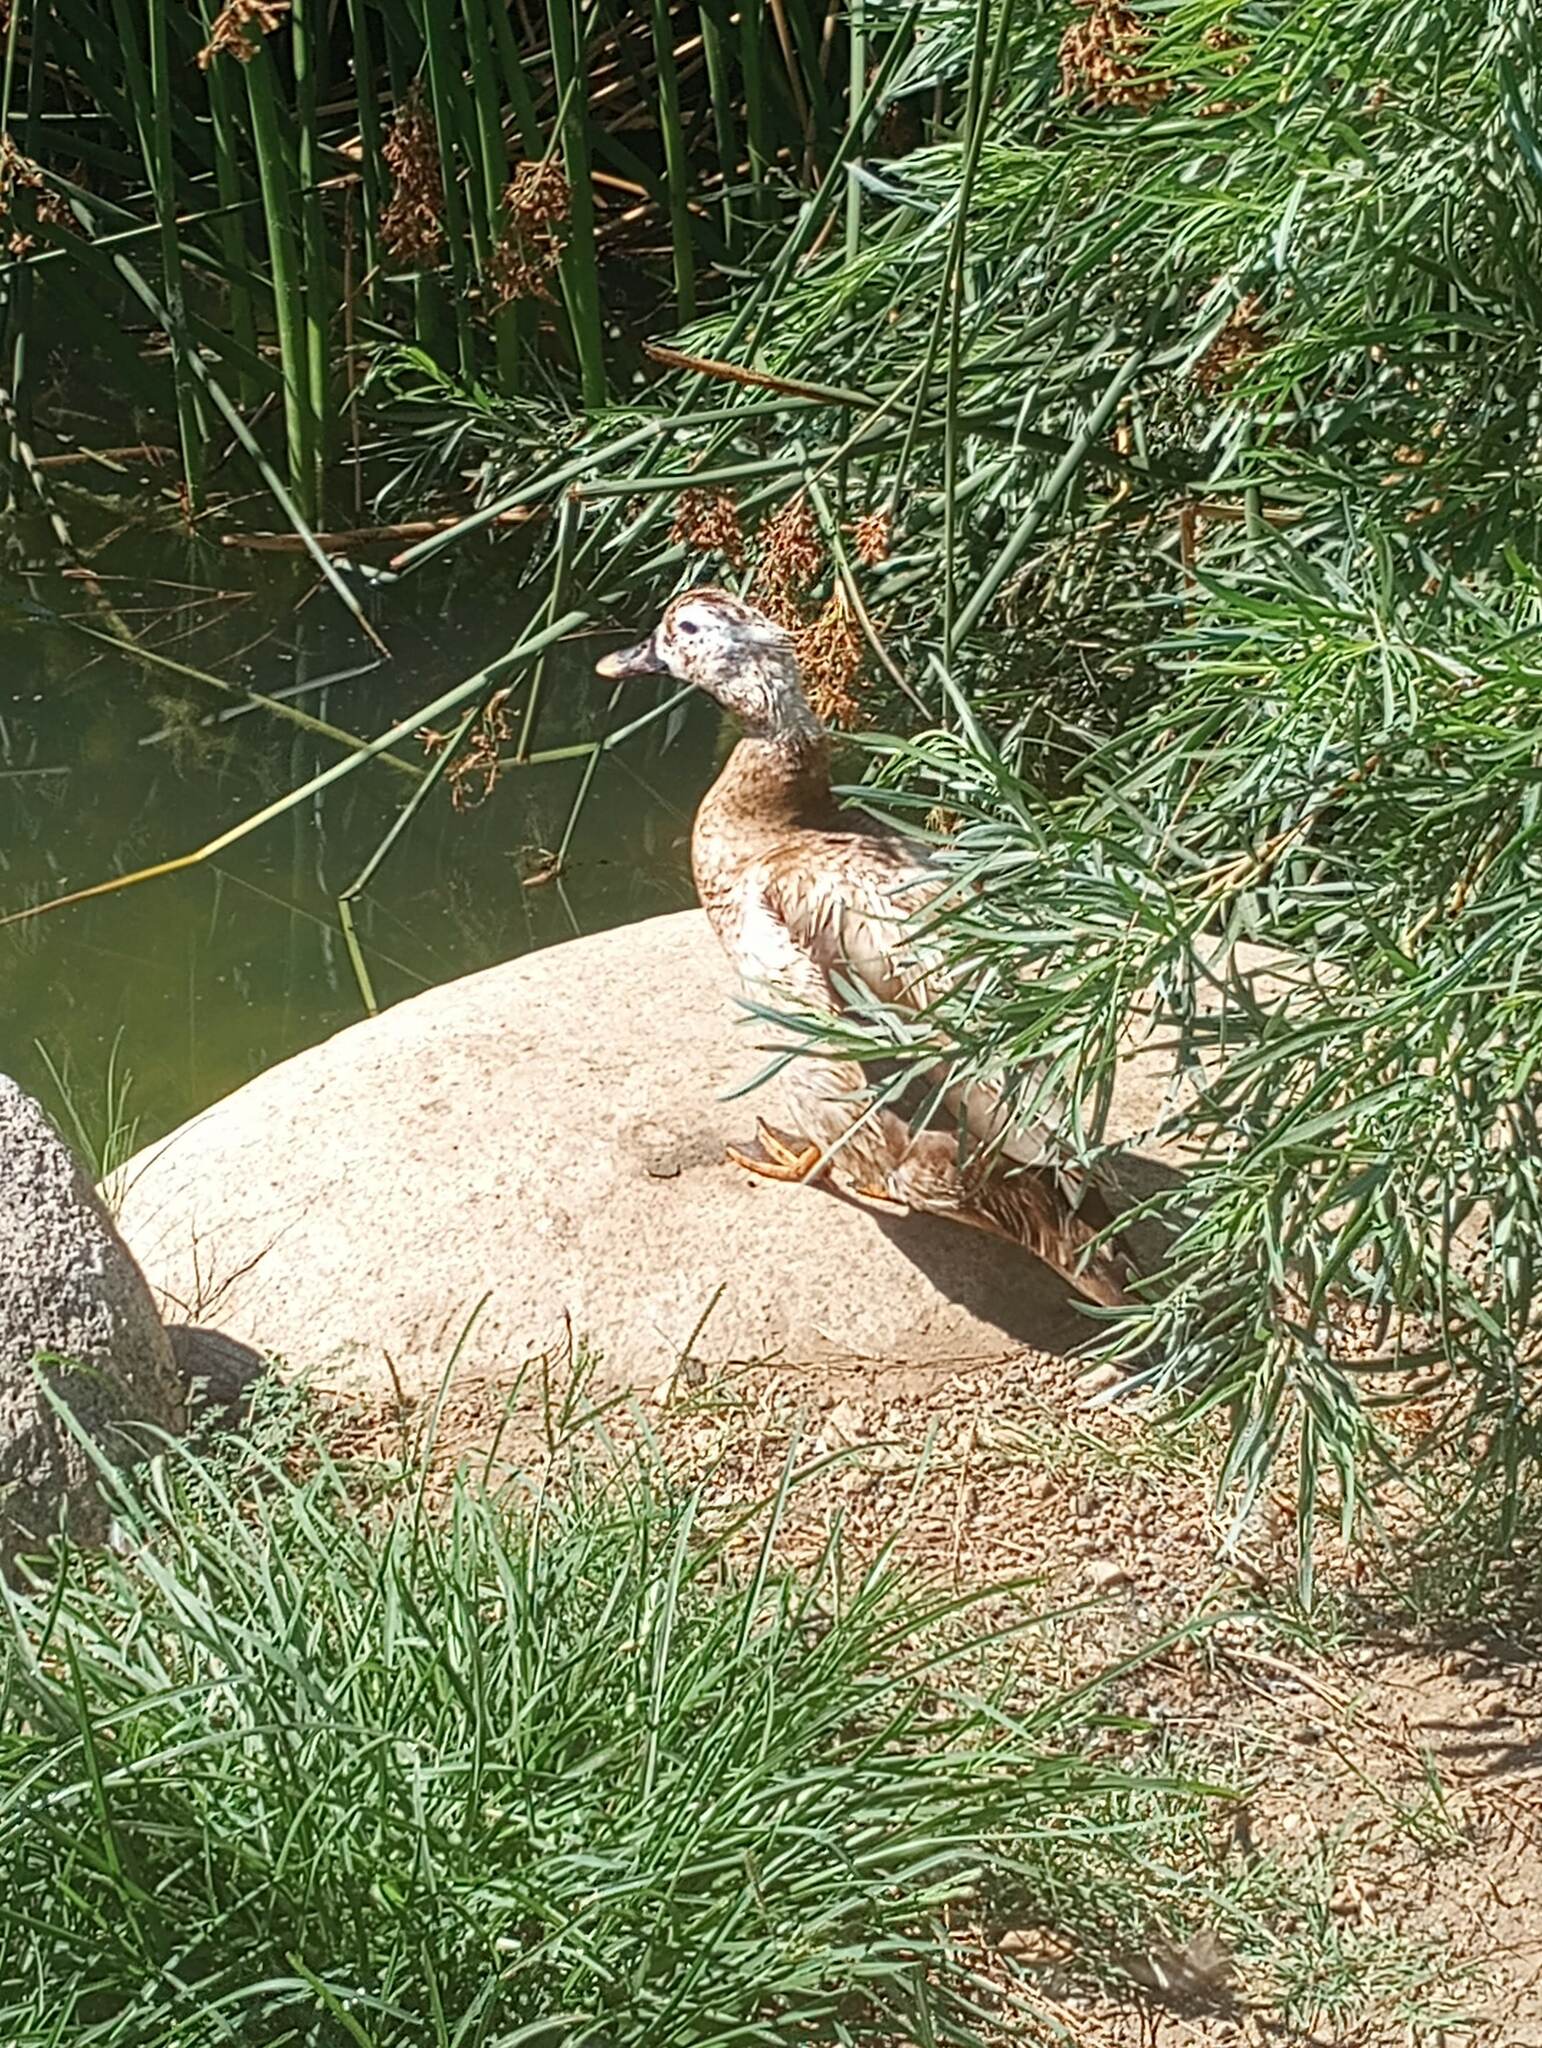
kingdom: Animalia
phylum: Chordata
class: Aves
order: Anseriformes
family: Anatidae
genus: Anas
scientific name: Anas platyrhynchos
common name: Mallard
